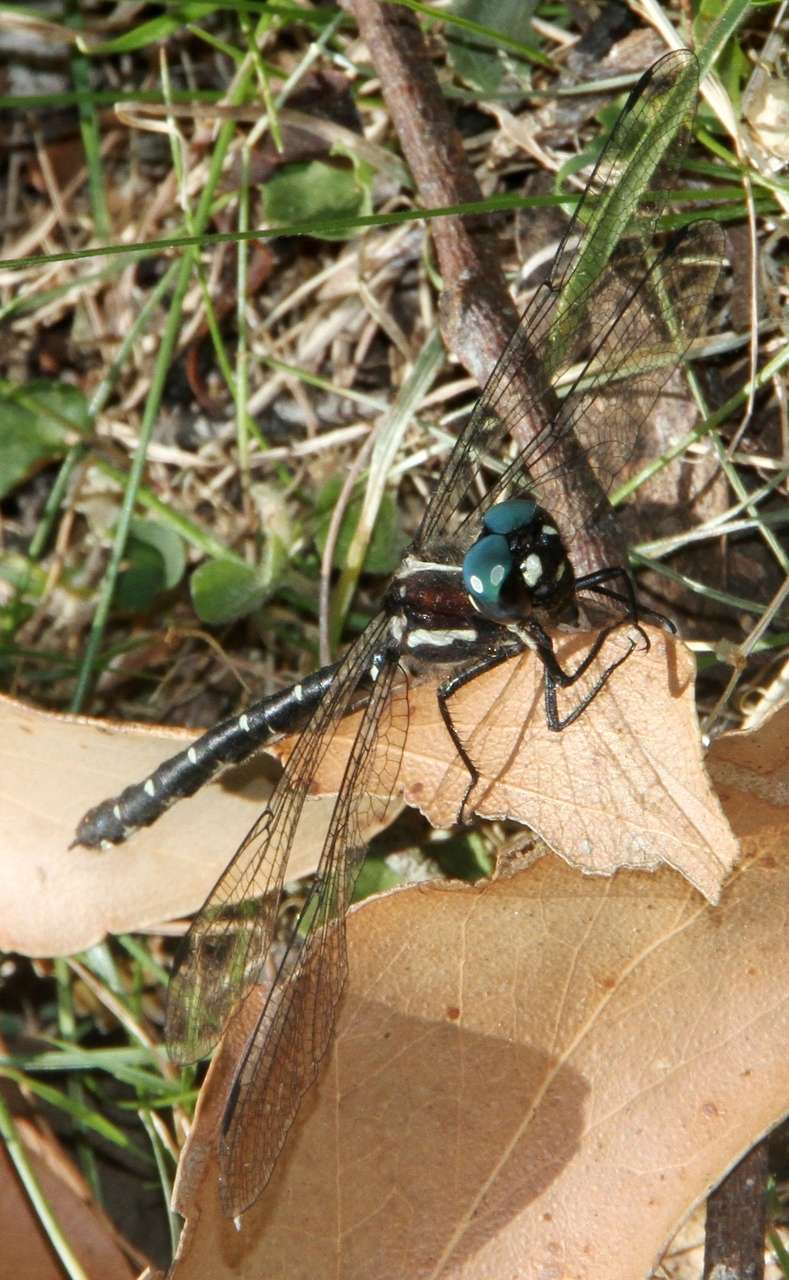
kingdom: Animalia
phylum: Arthropoda
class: Insecta
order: Odonata
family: Synthemistidae
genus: Eusynthemis
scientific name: Eusynthemis guttata
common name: Southern tigertail
